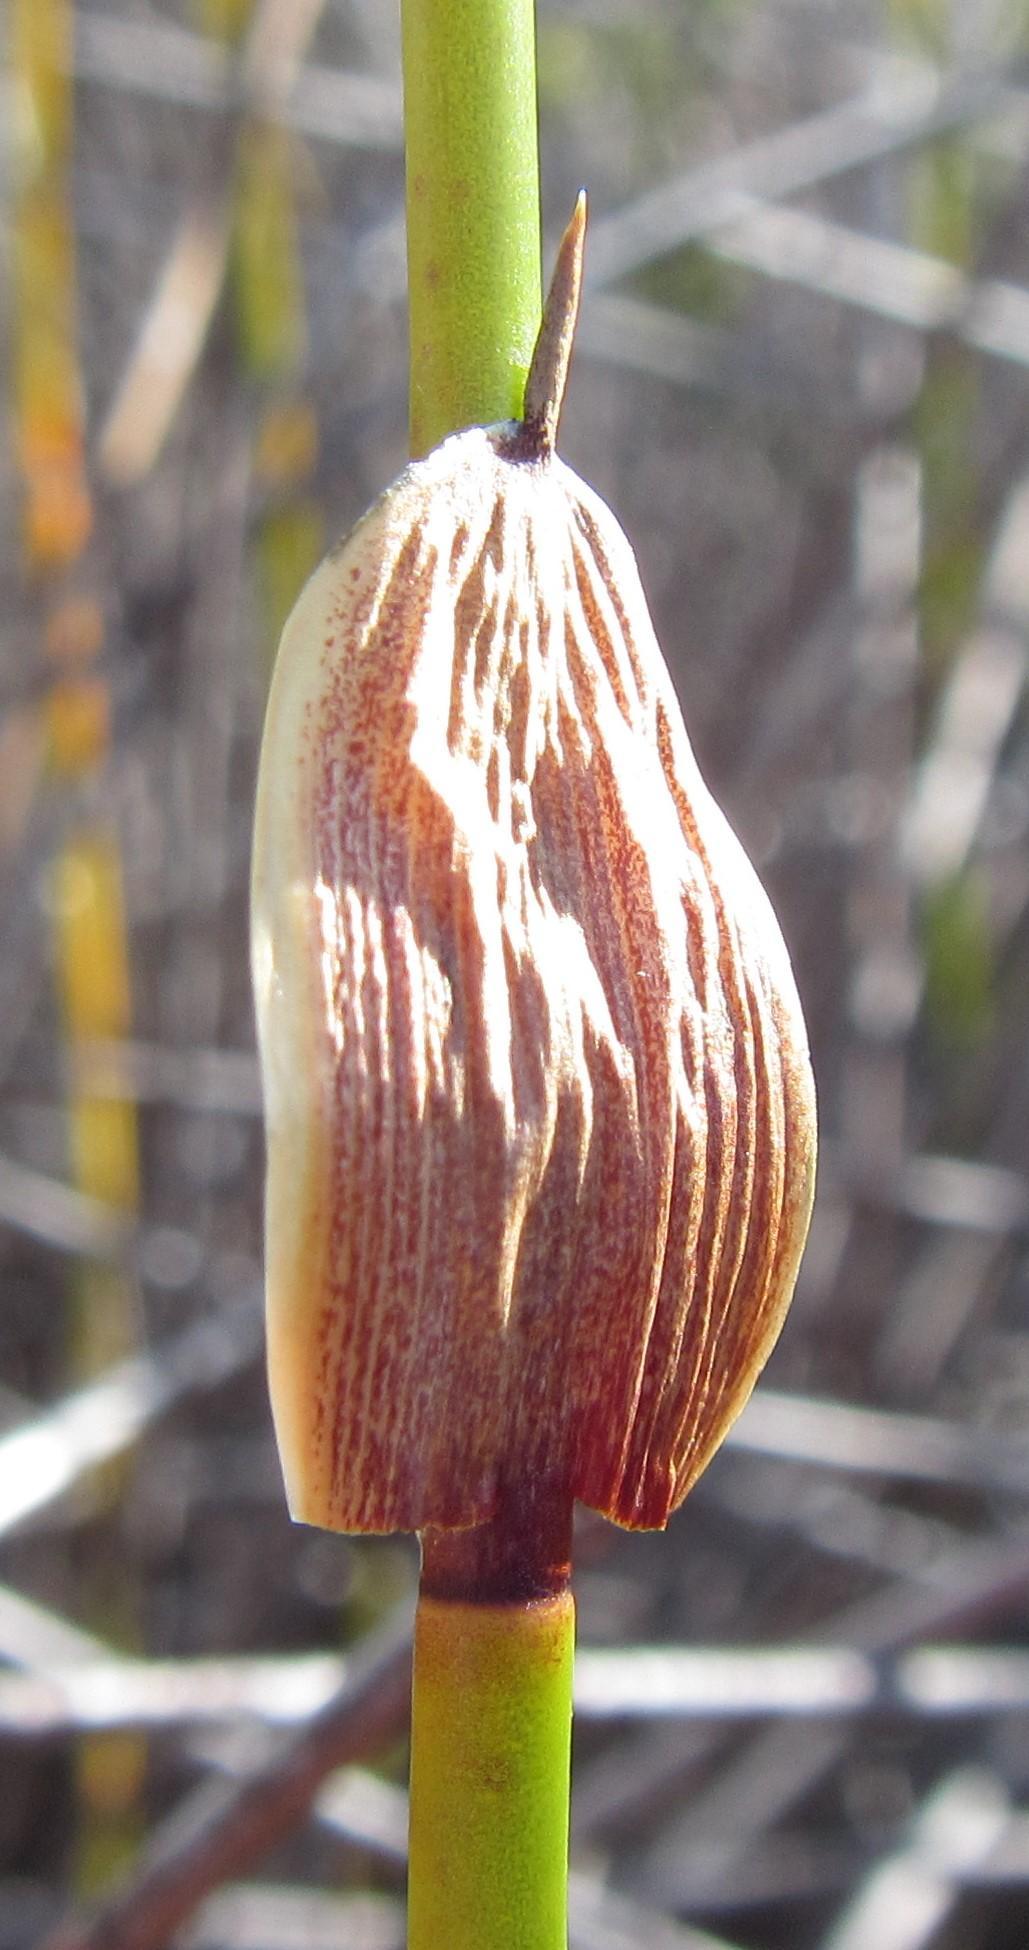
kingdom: Plantae
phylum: Tracheophyta
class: Liliopsida
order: Poales
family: Restionaceae
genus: Askidiosperma
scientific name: Askidiosperma paniculatum
